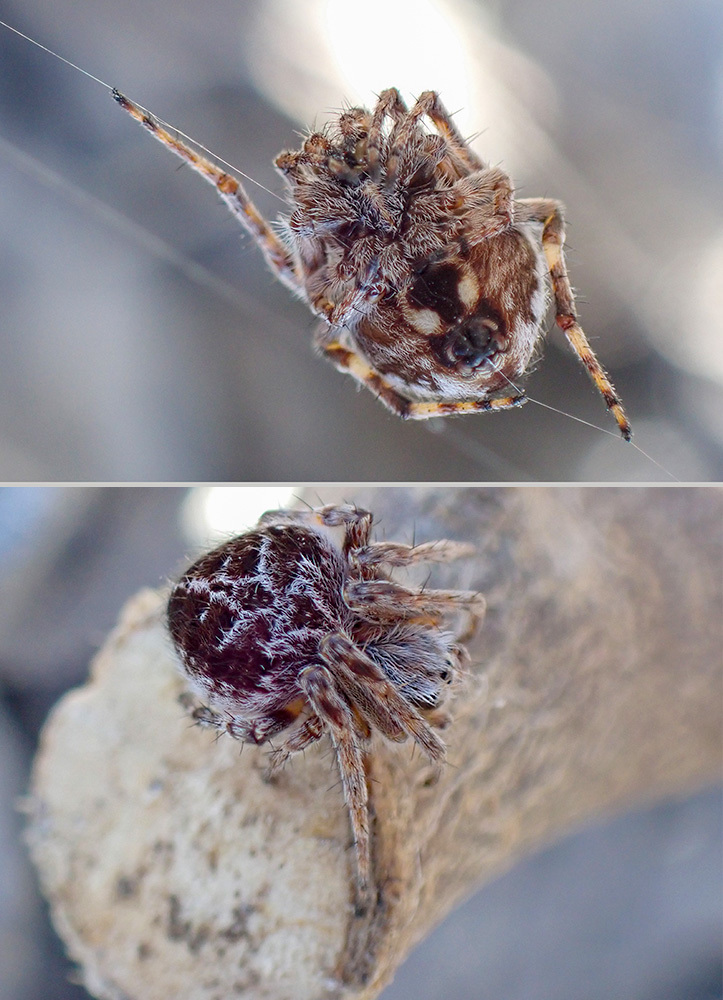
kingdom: Animalia
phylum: Arthropoda
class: Arachnida
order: Araneae
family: Araneidae
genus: Agalenatea
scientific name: Agalenatea redii
